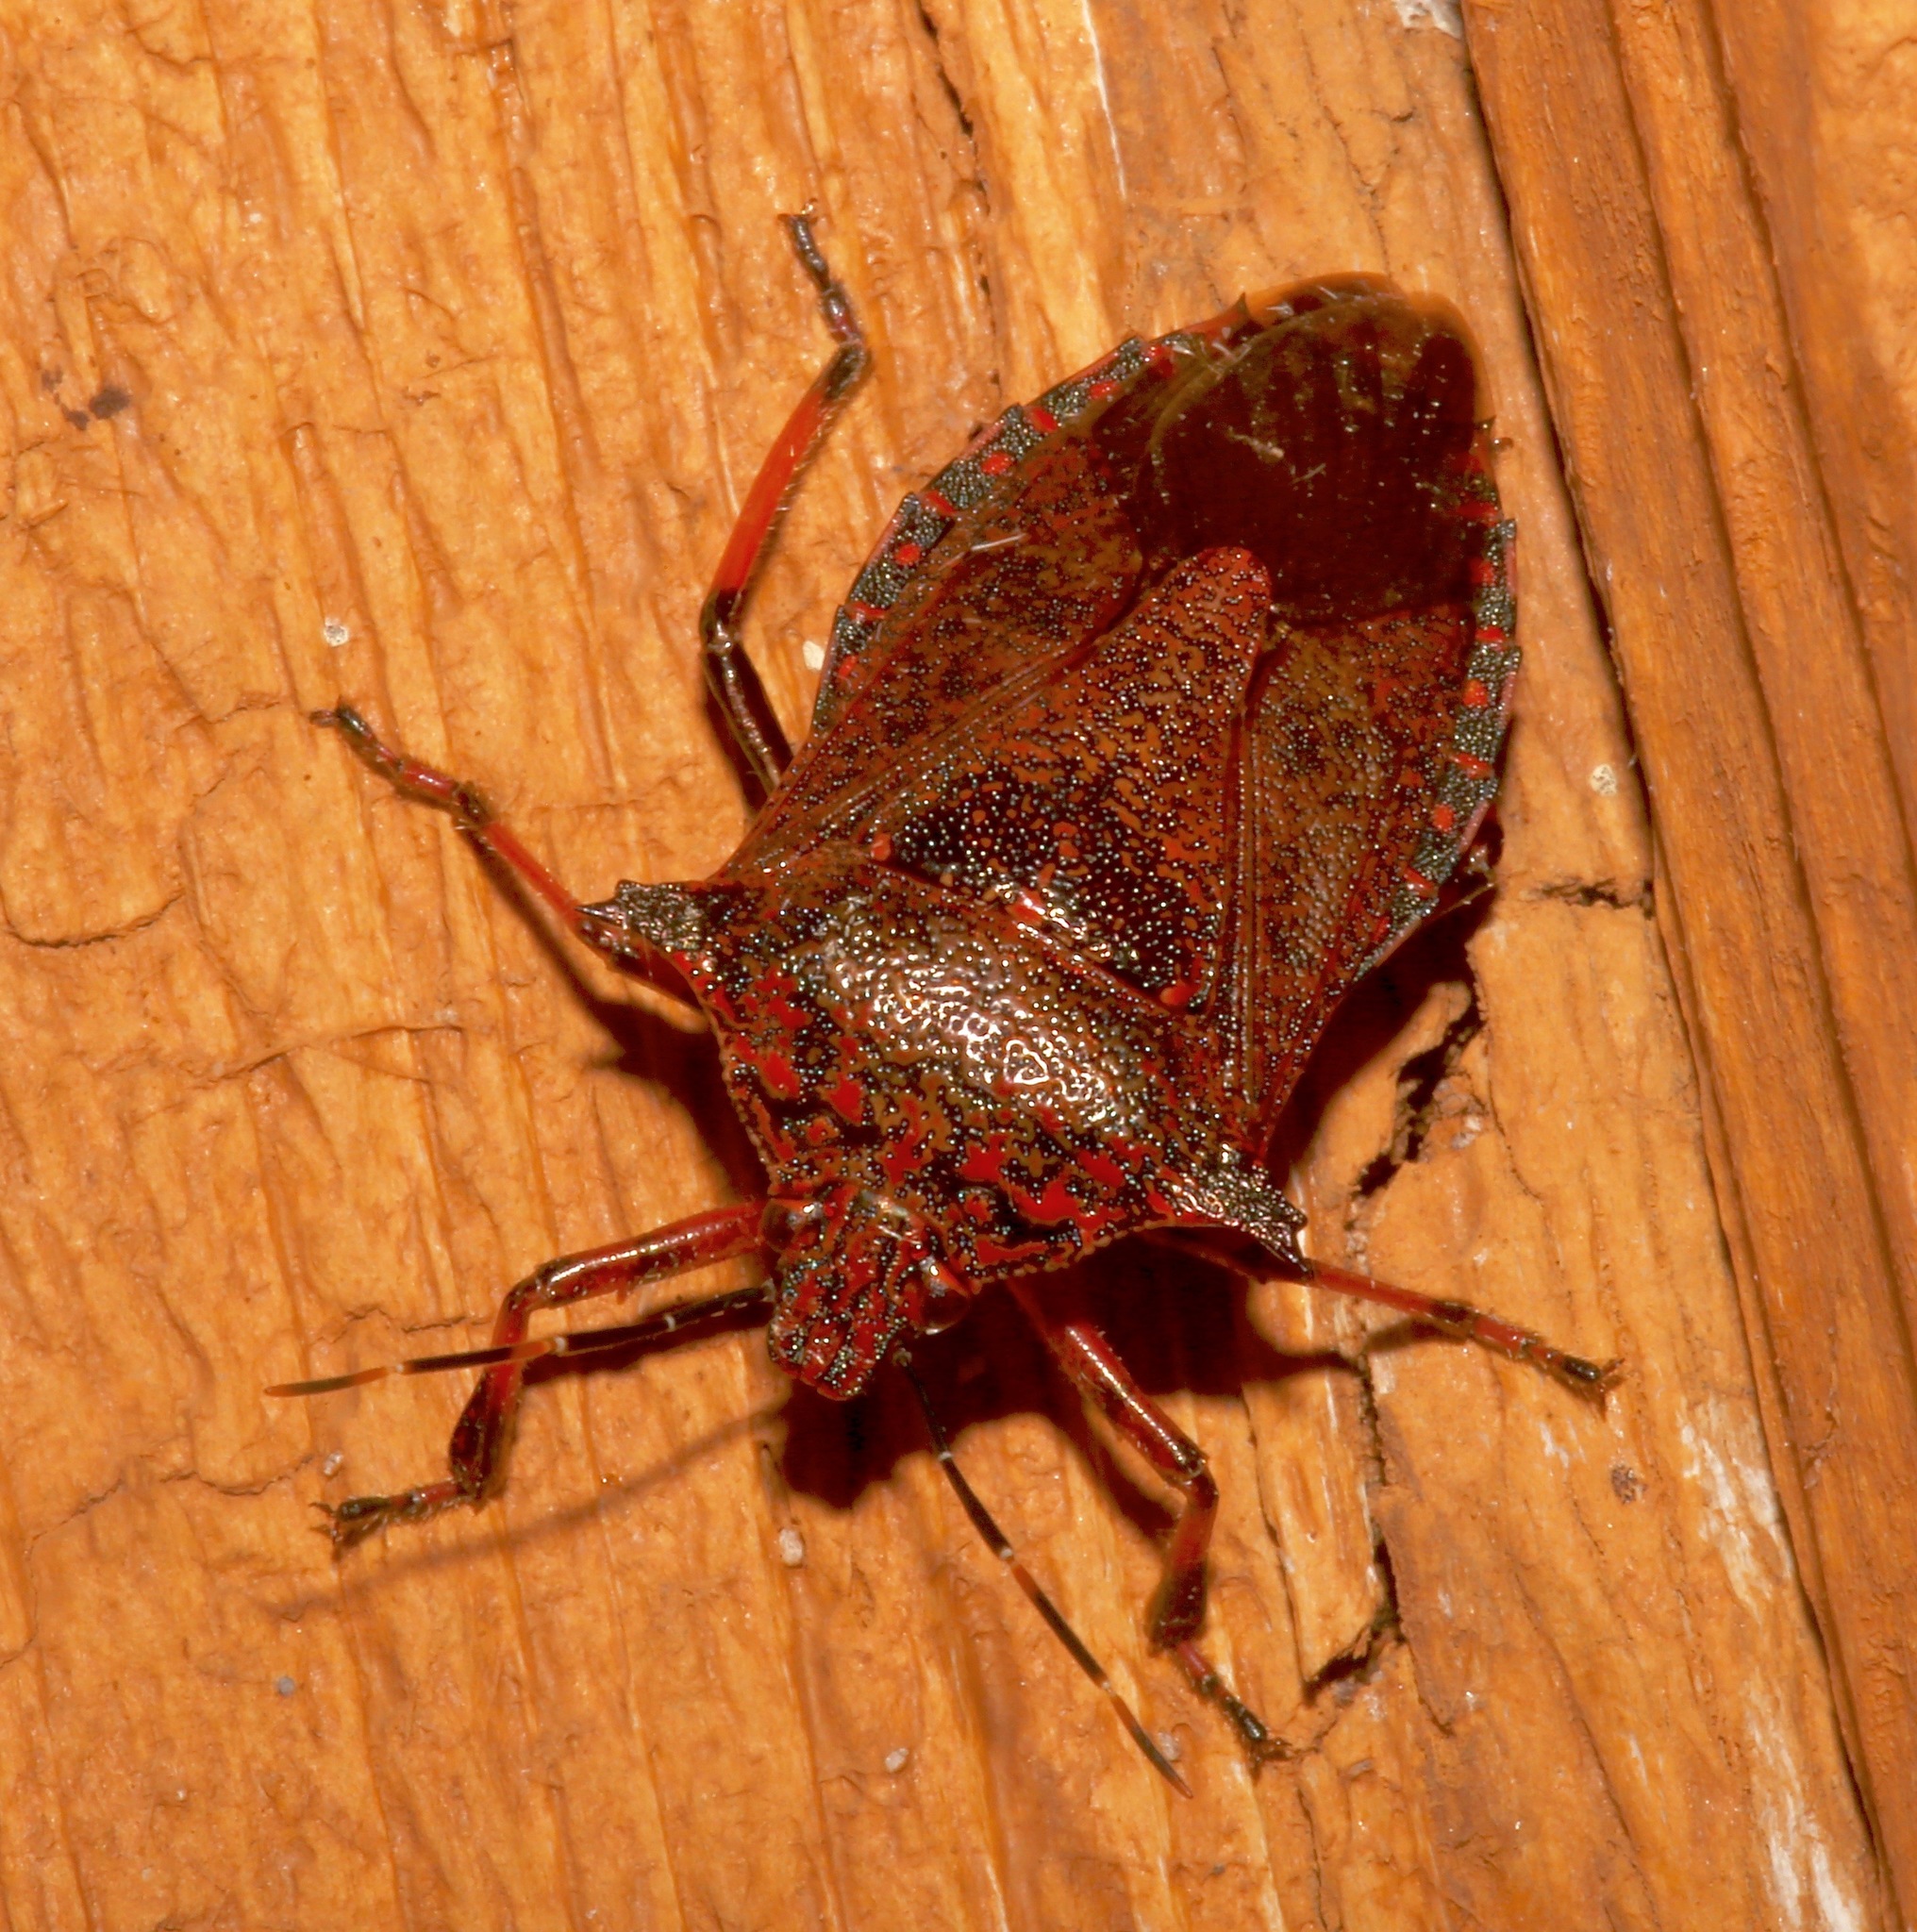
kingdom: Animalia
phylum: Arthropoda
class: Insecta
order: Hemiptera
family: Pentatomidae
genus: Alcaeorrhynchus
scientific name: Alcaeorrhynchus grandis
